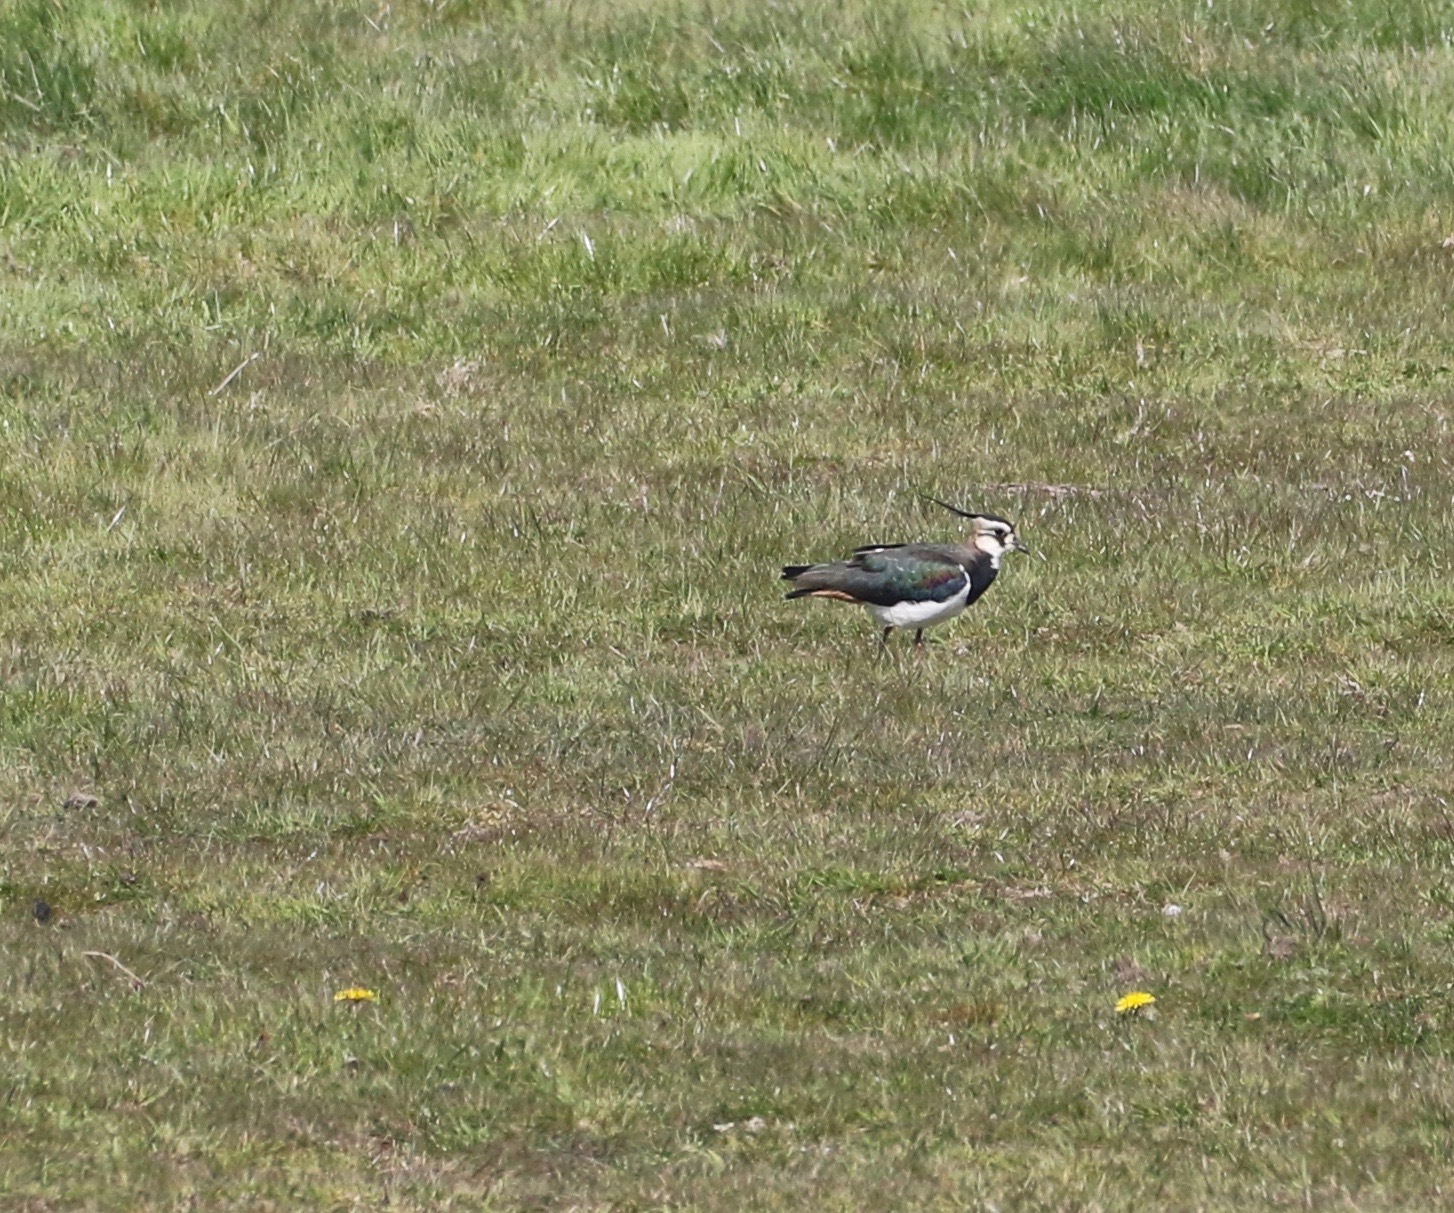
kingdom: Animalia
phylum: Chordata
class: Aves
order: Charadriiformes
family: Charadriidae
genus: Vanellus
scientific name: Vanellus vanellus
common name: Northern lapwing
